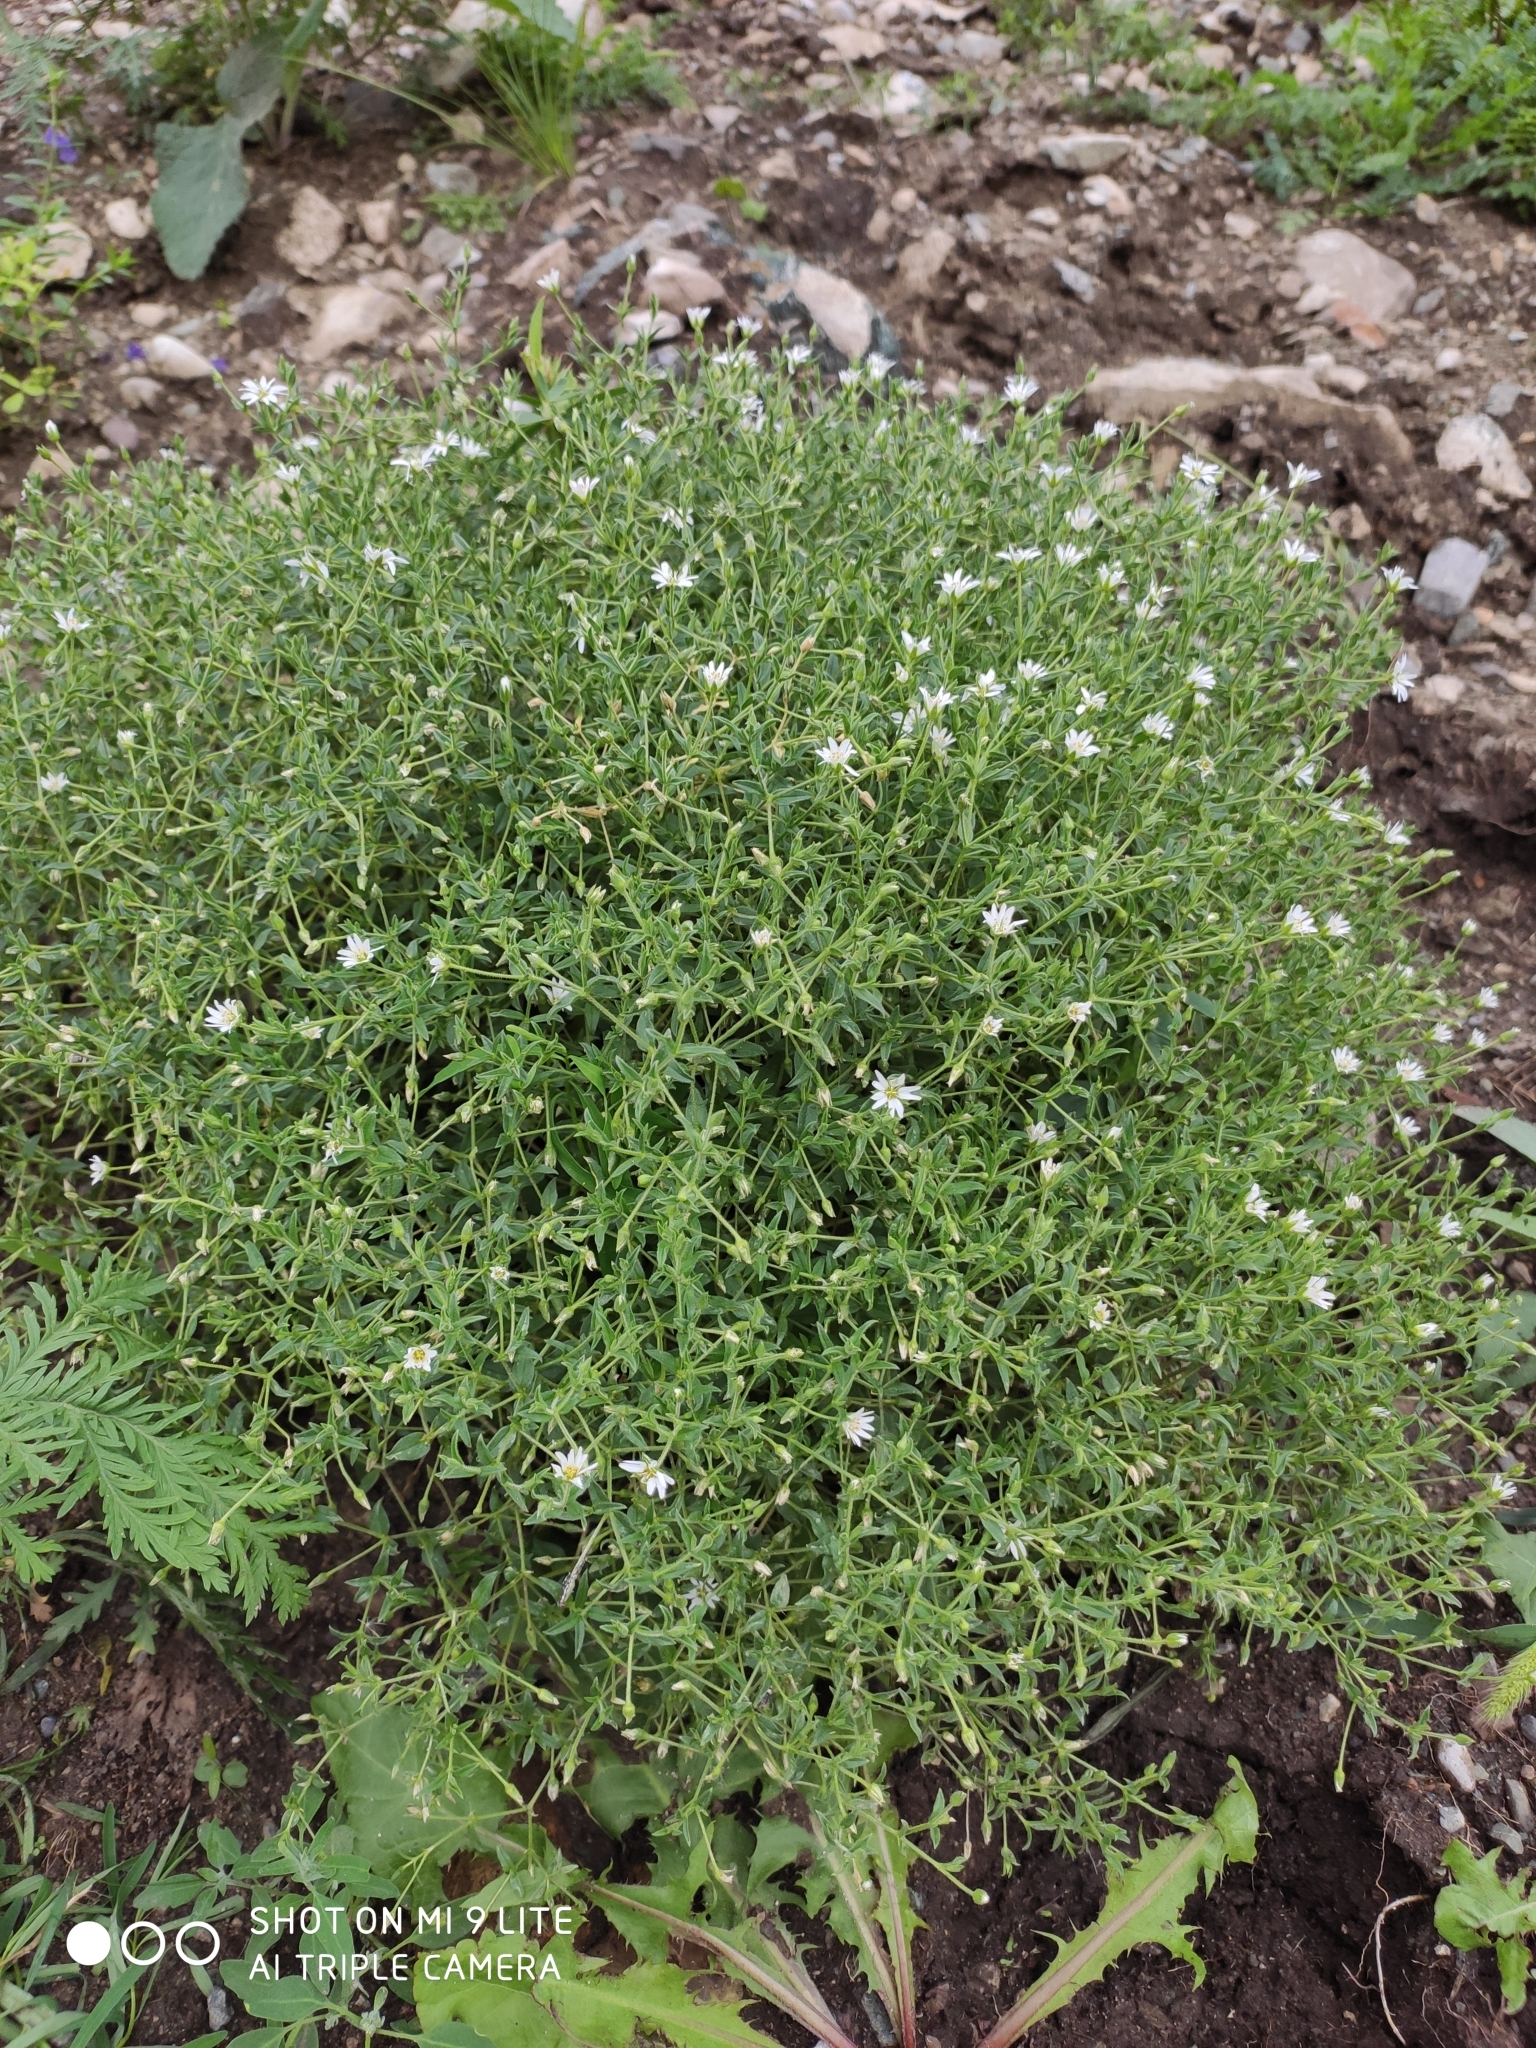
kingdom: Plantae
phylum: Tracheophyta
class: Magnoliopsida
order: Caryophyllales
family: Caryophyllaceae
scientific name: Caryophyllaceae
